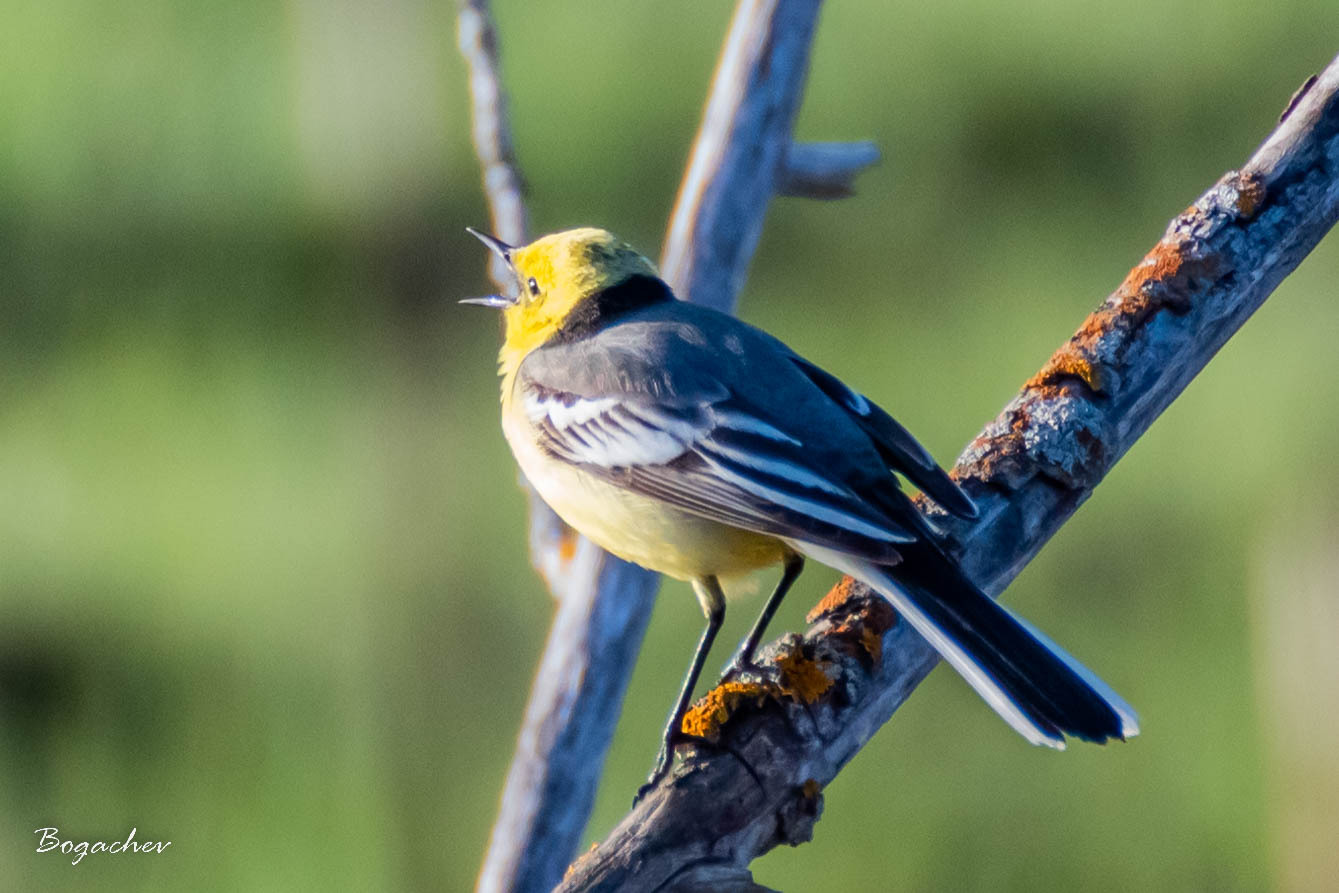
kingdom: Animalia
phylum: Chordata
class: Aves
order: Passeriformes
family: Motacillidae
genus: Motacilla
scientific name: Motacilla citreola
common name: Citrine wagtail
